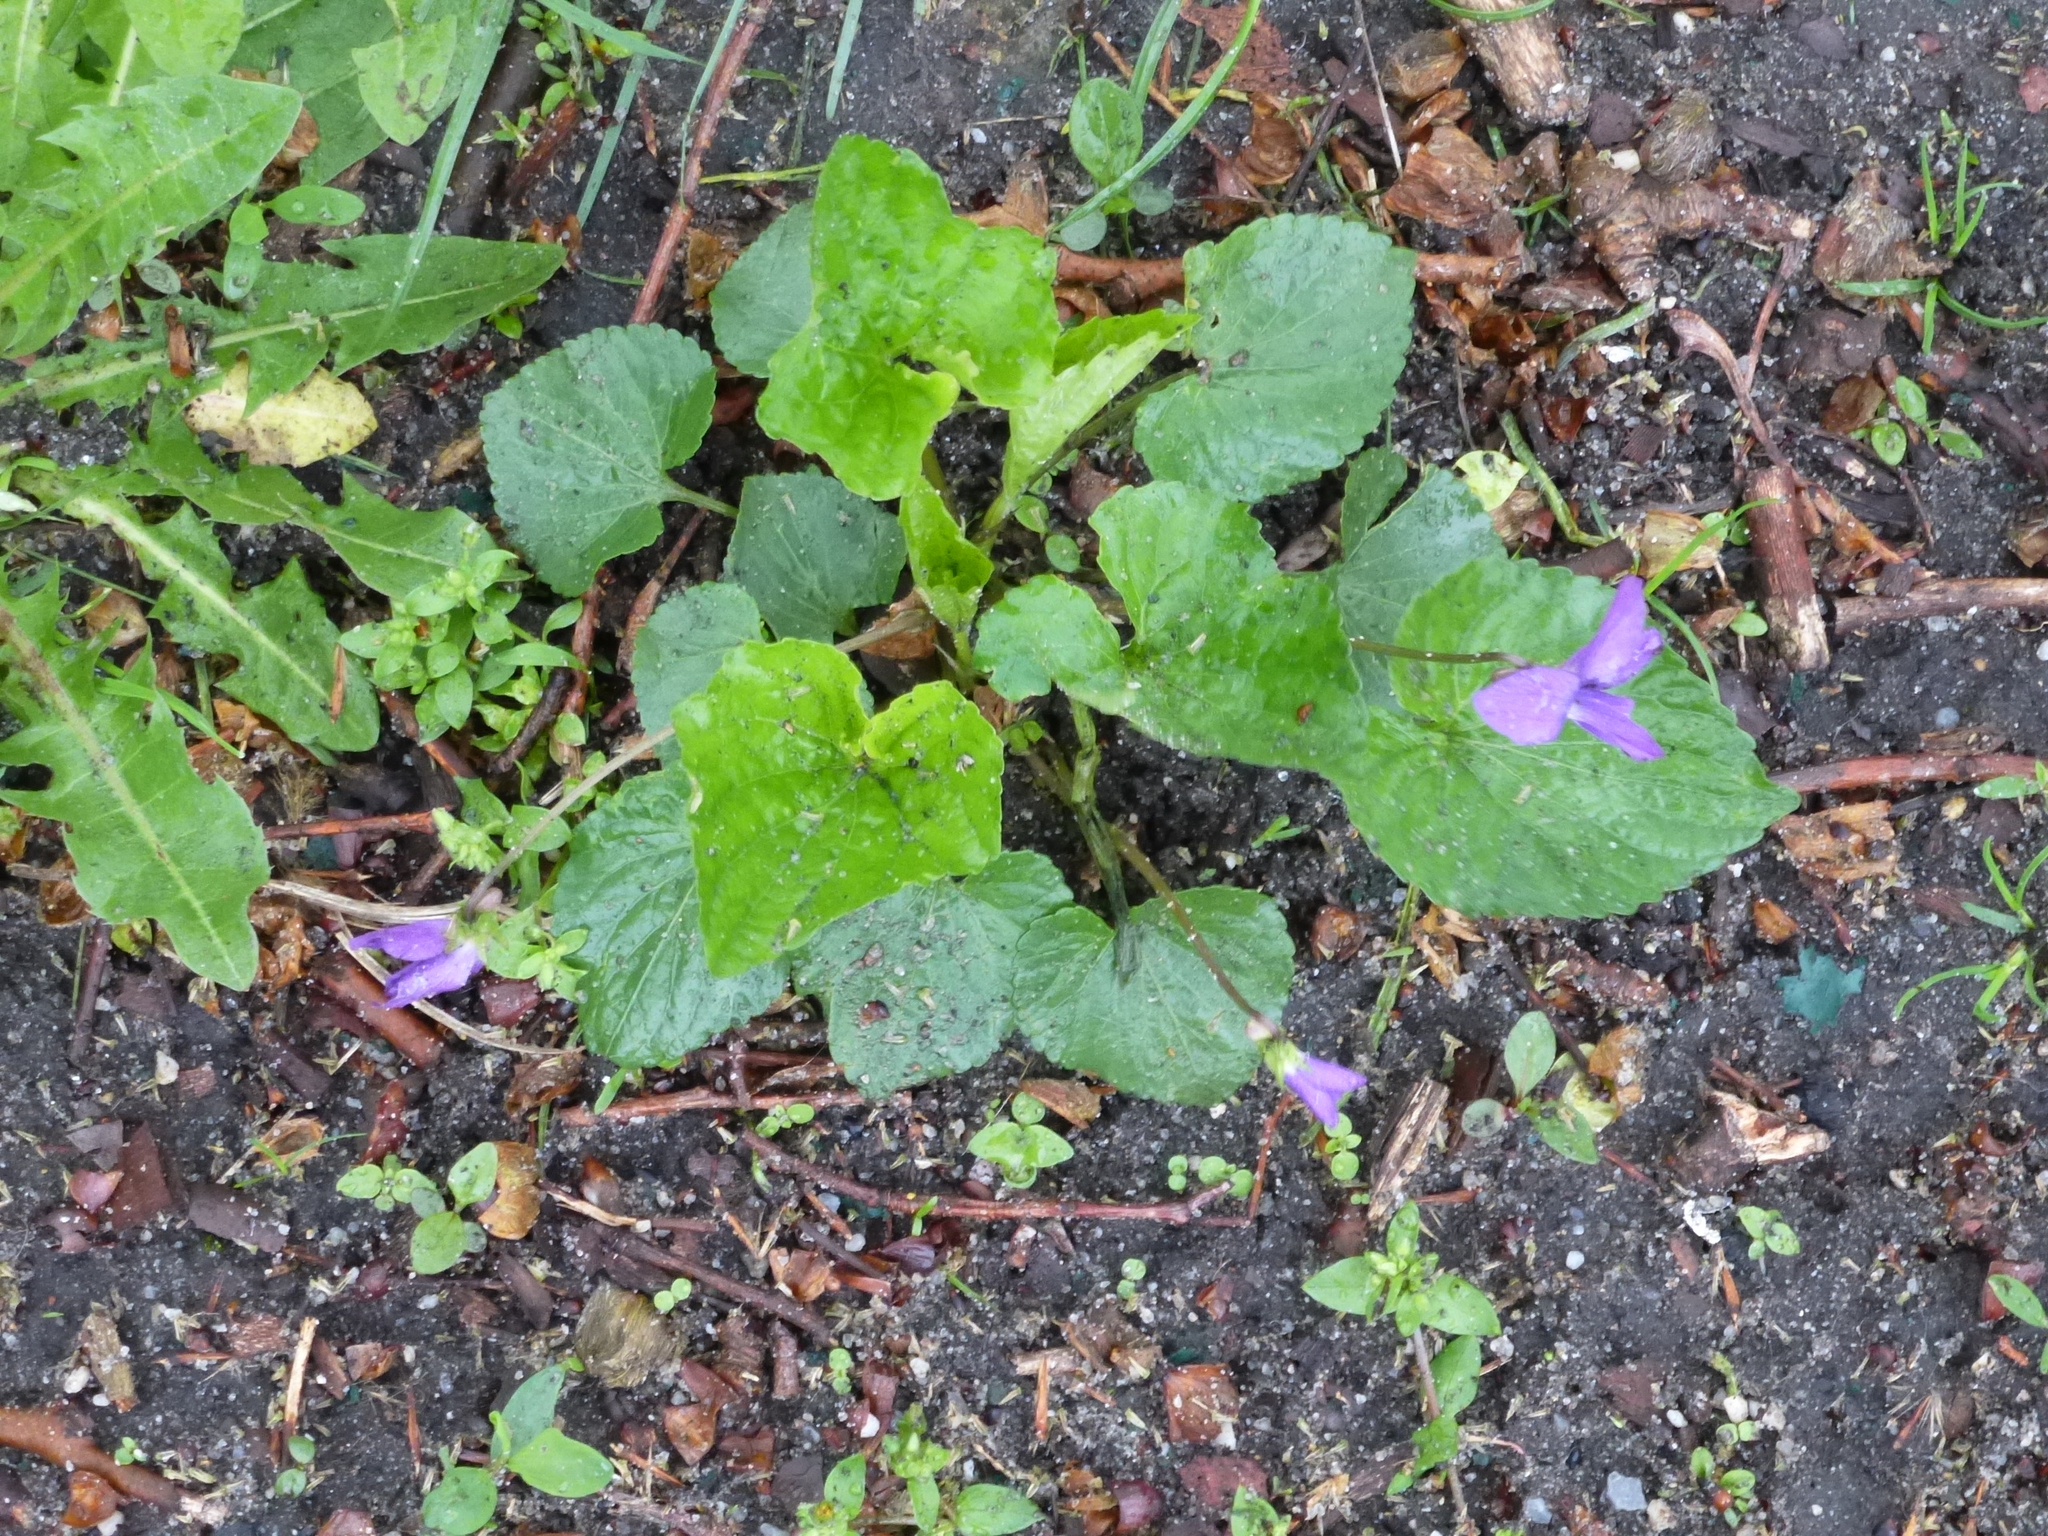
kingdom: Plantae
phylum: Tracheophyta
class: Magnoliopsida
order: Malpighiales
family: Violaceae
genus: Viola
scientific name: Viola sororia
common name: Dooryard violet
